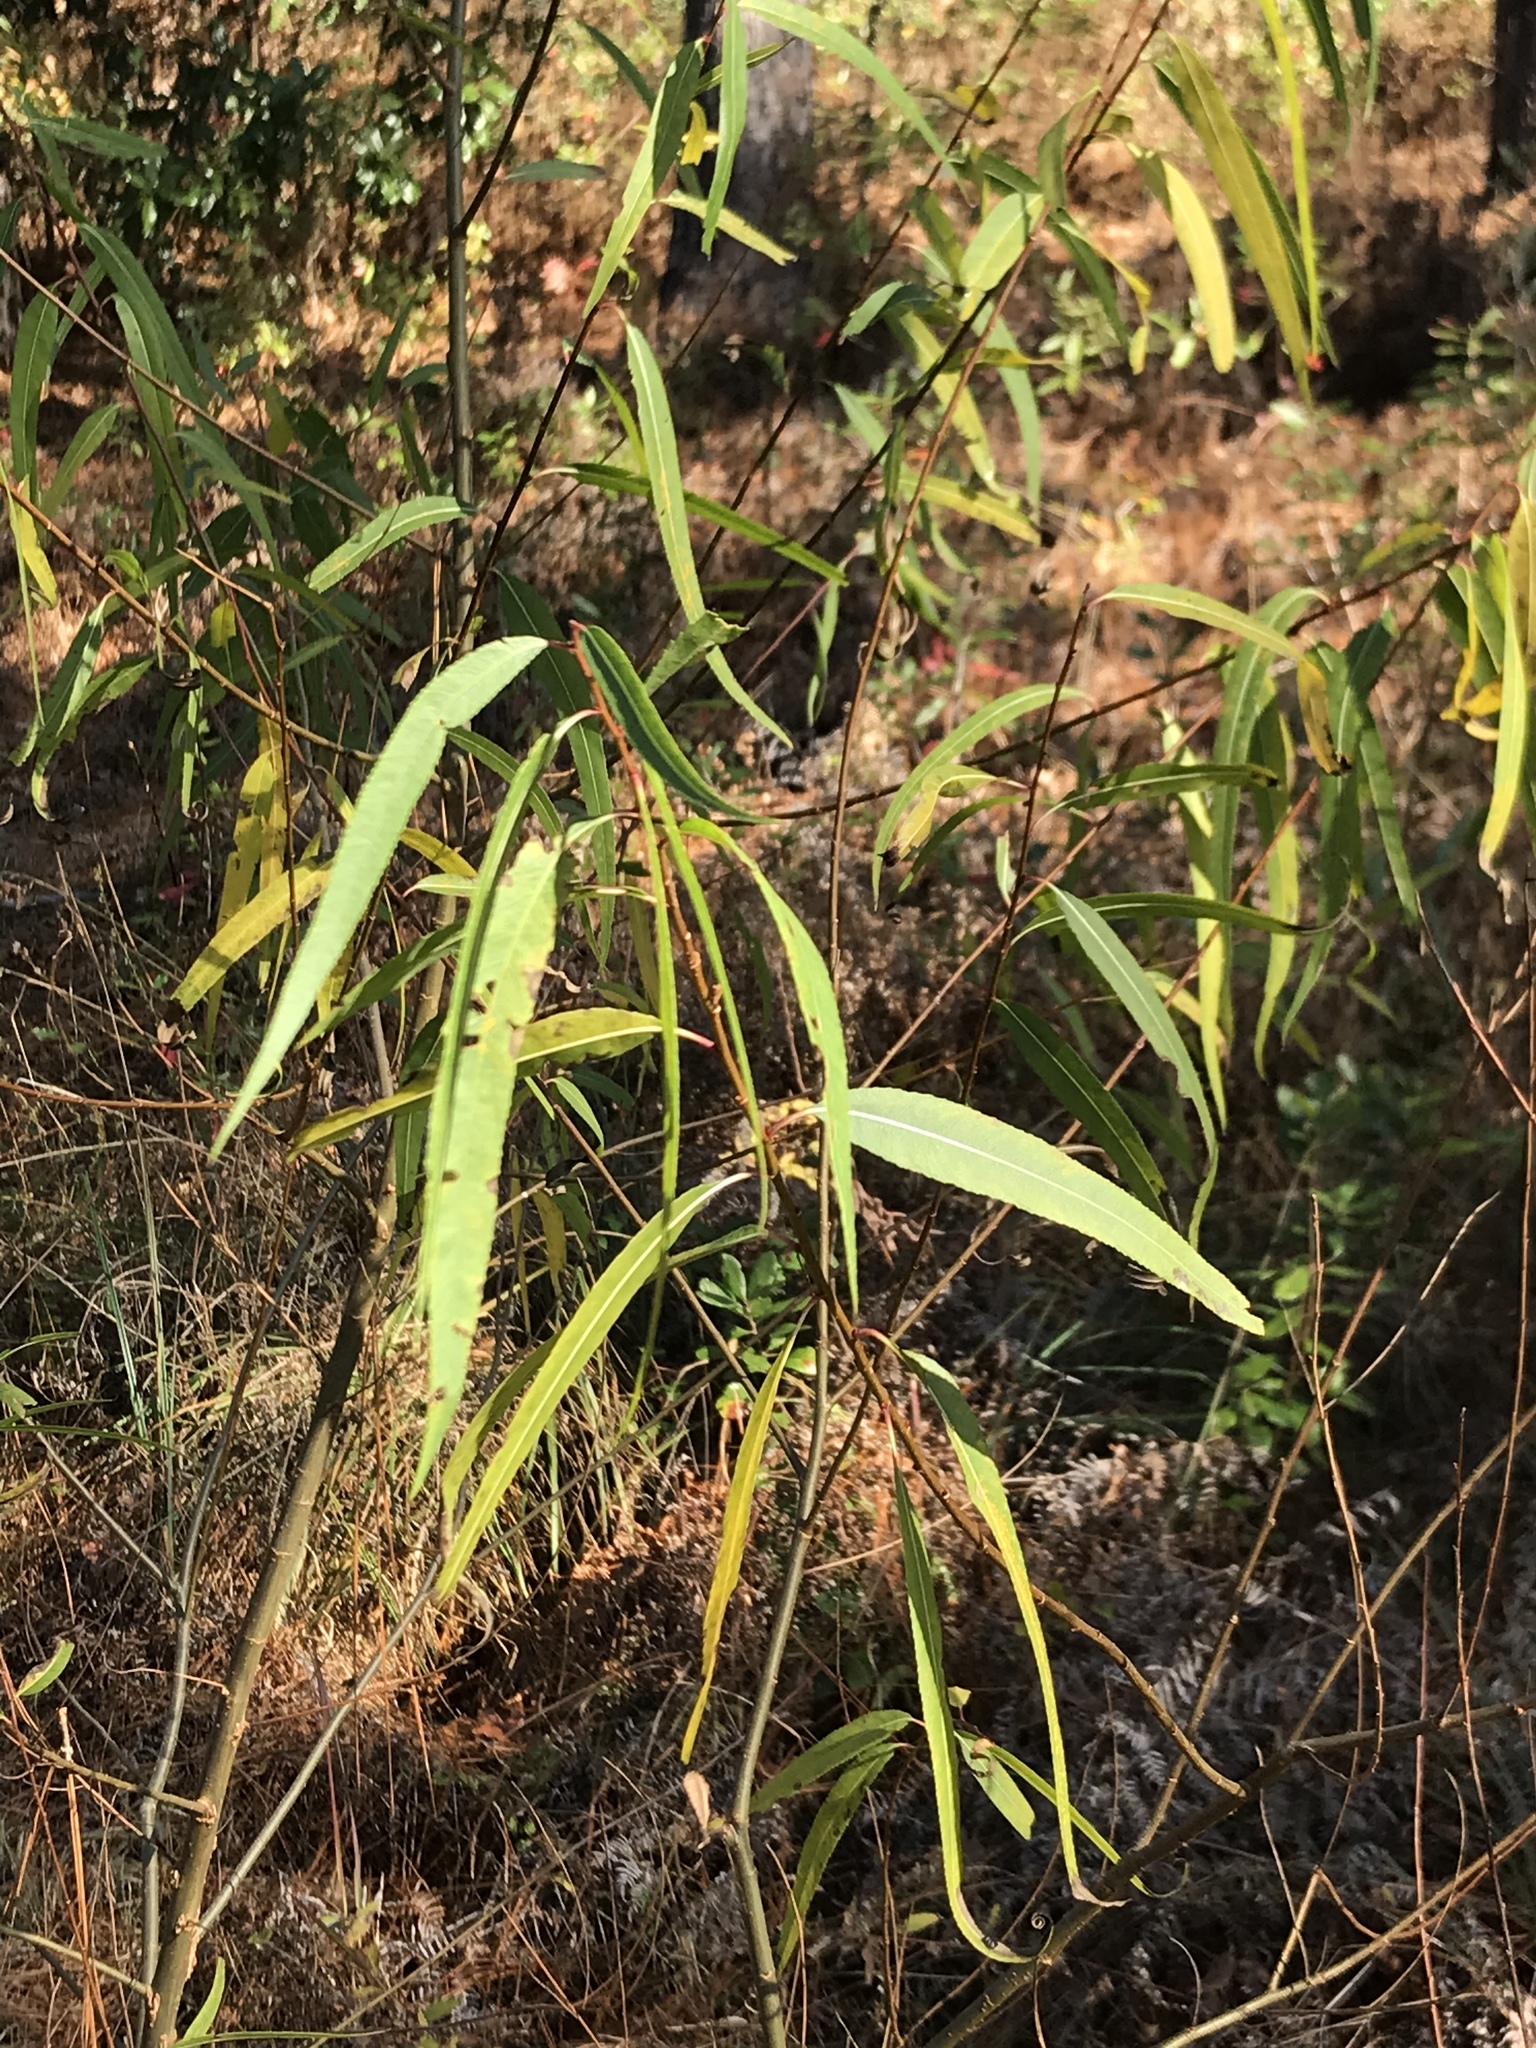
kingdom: Plantae
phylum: Tracheophyta
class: Magnoliopsida
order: Malpighiales
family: Salicaceae
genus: Salix
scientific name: Salix nigra
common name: Black willow
